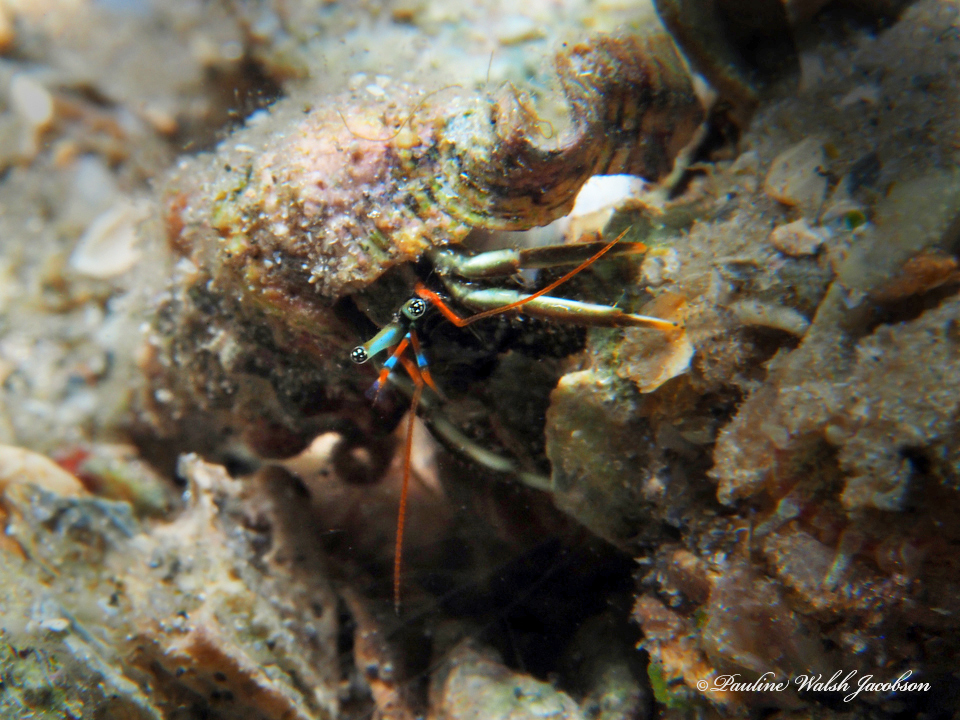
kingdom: Animalia
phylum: Arthropoda
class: Malacostraca
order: Decapoda
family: Diogenidae
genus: Clibanarius
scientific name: Clibanarius brasiliensis
